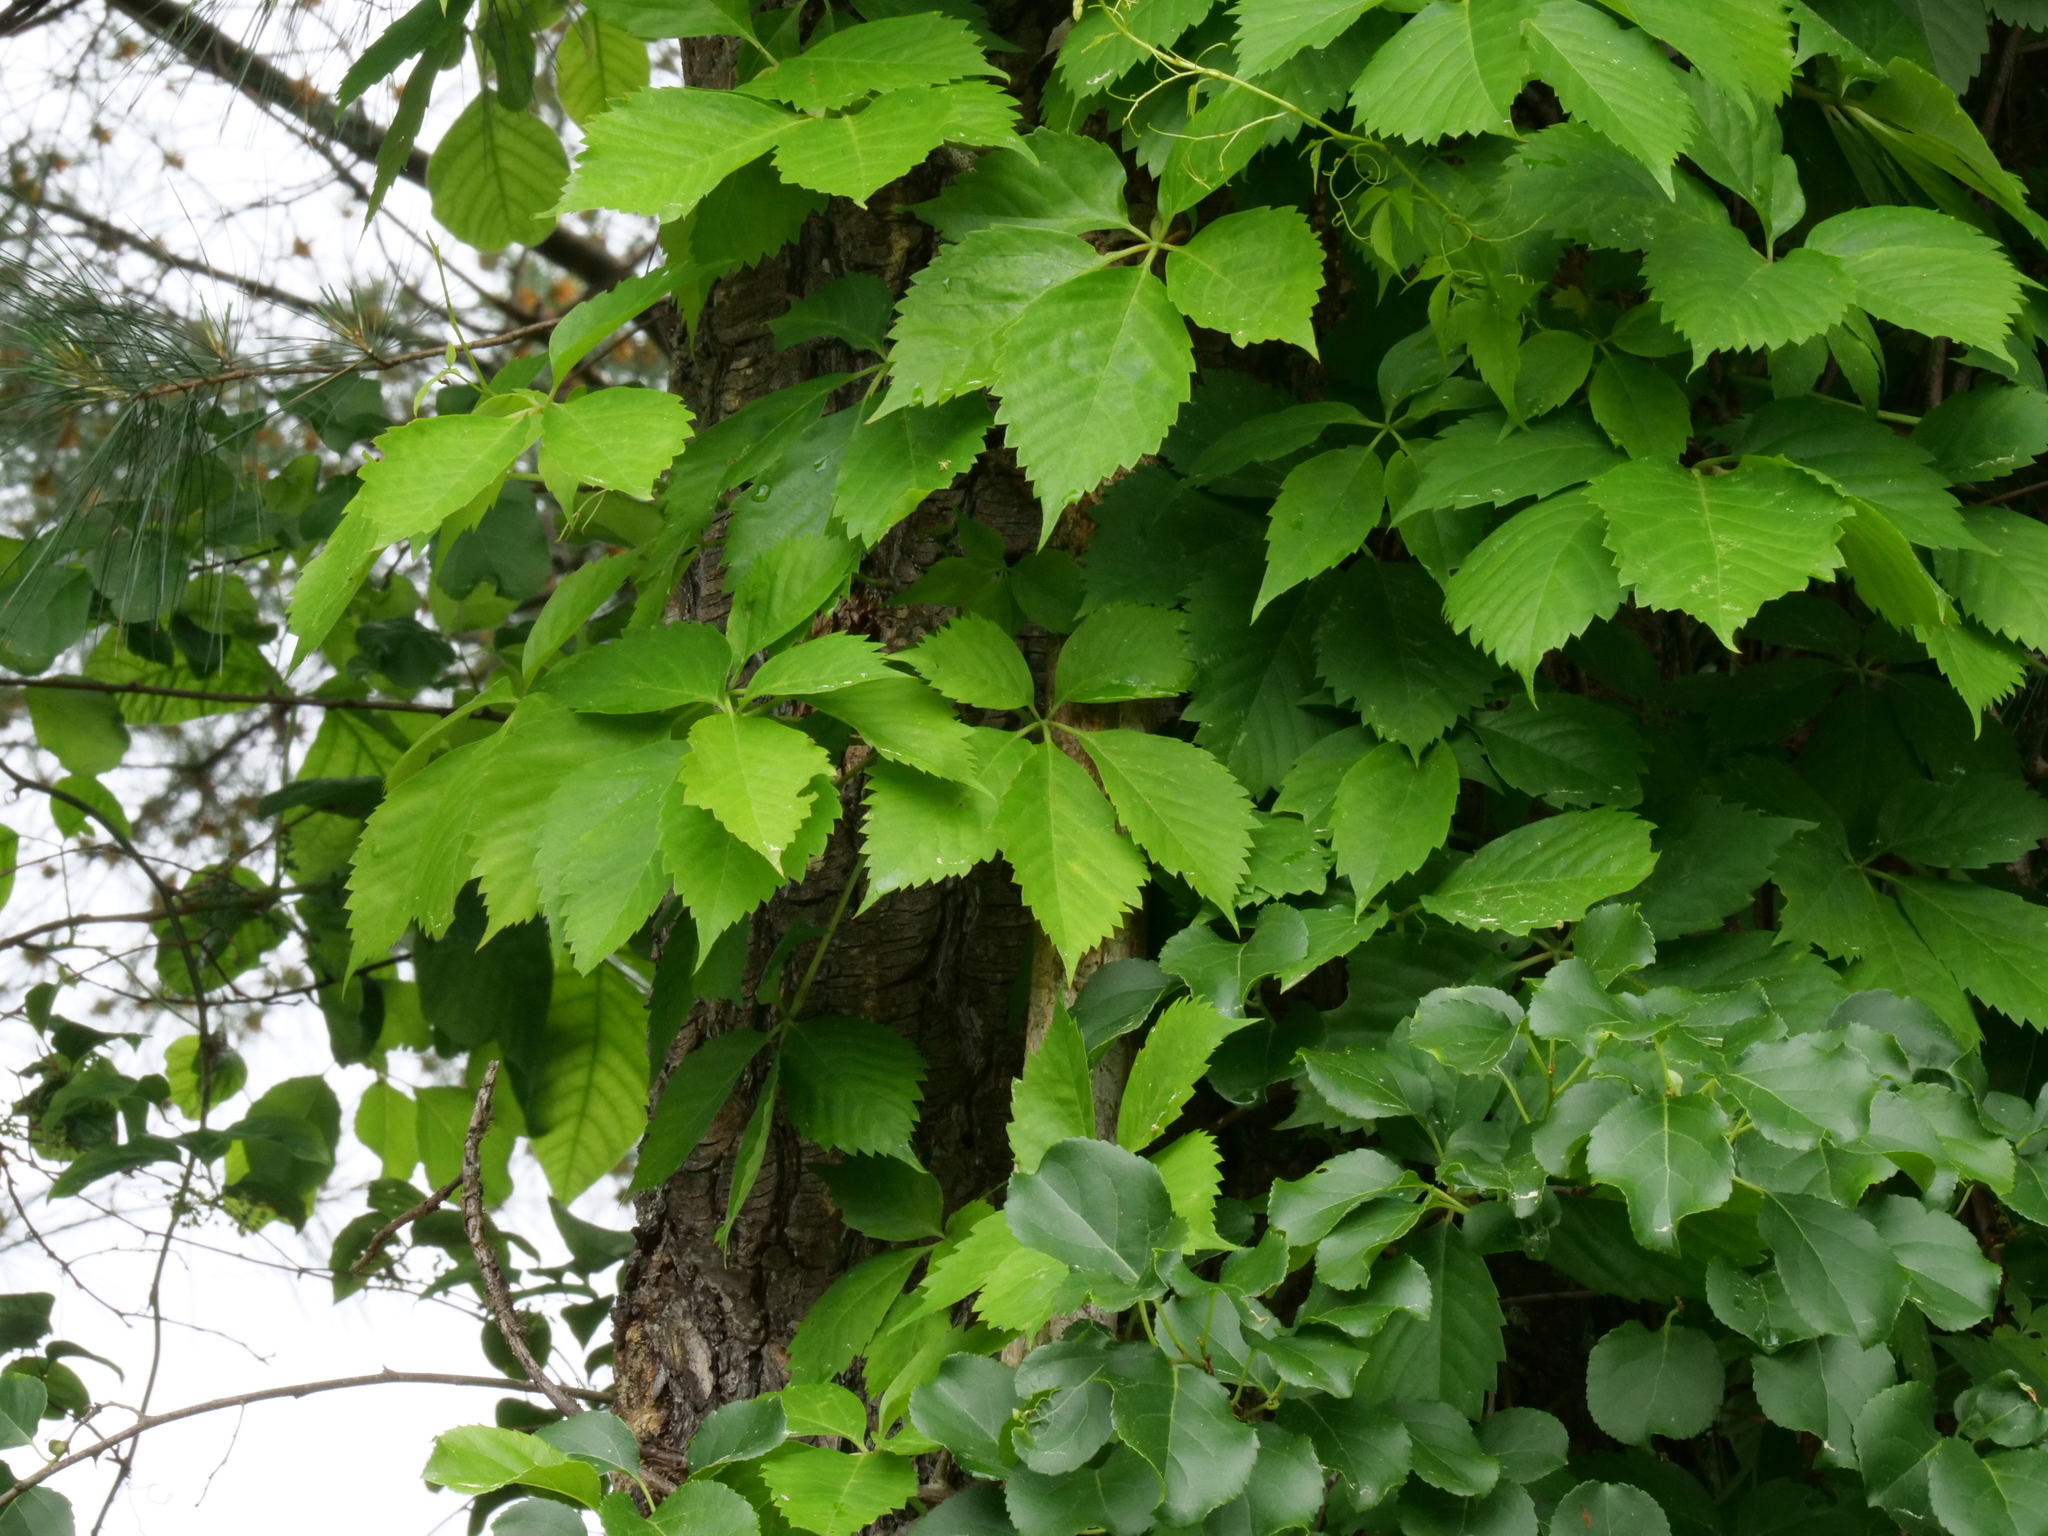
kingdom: Plantae
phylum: Tracheophyta
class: Magnoliopsida
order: Vitales
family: Vitaceae
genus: Parthenocissus
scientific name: Parthenocissus quinquefolia
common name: Virginia-creeper
